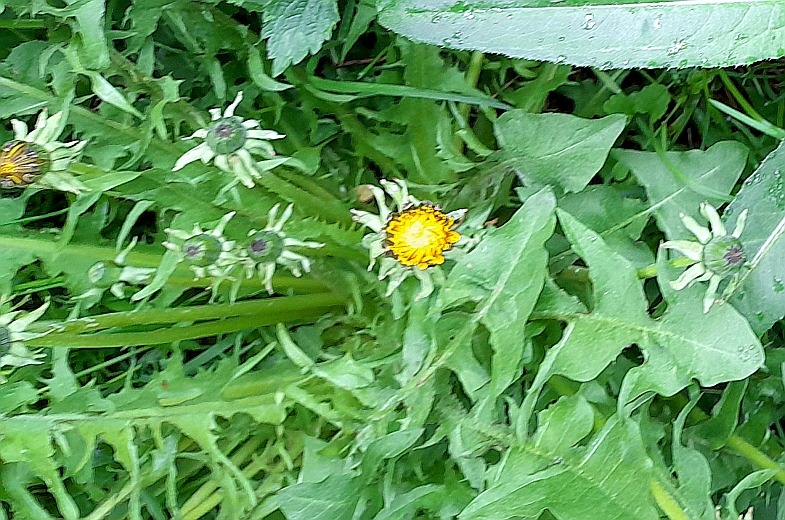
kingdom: Plantae
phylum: Tracheophyta
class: Magnoliopsida
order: Asterales
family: Asteraceae
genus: Taraxacum
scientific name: Taraxacum officinale
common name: Common dandelion
